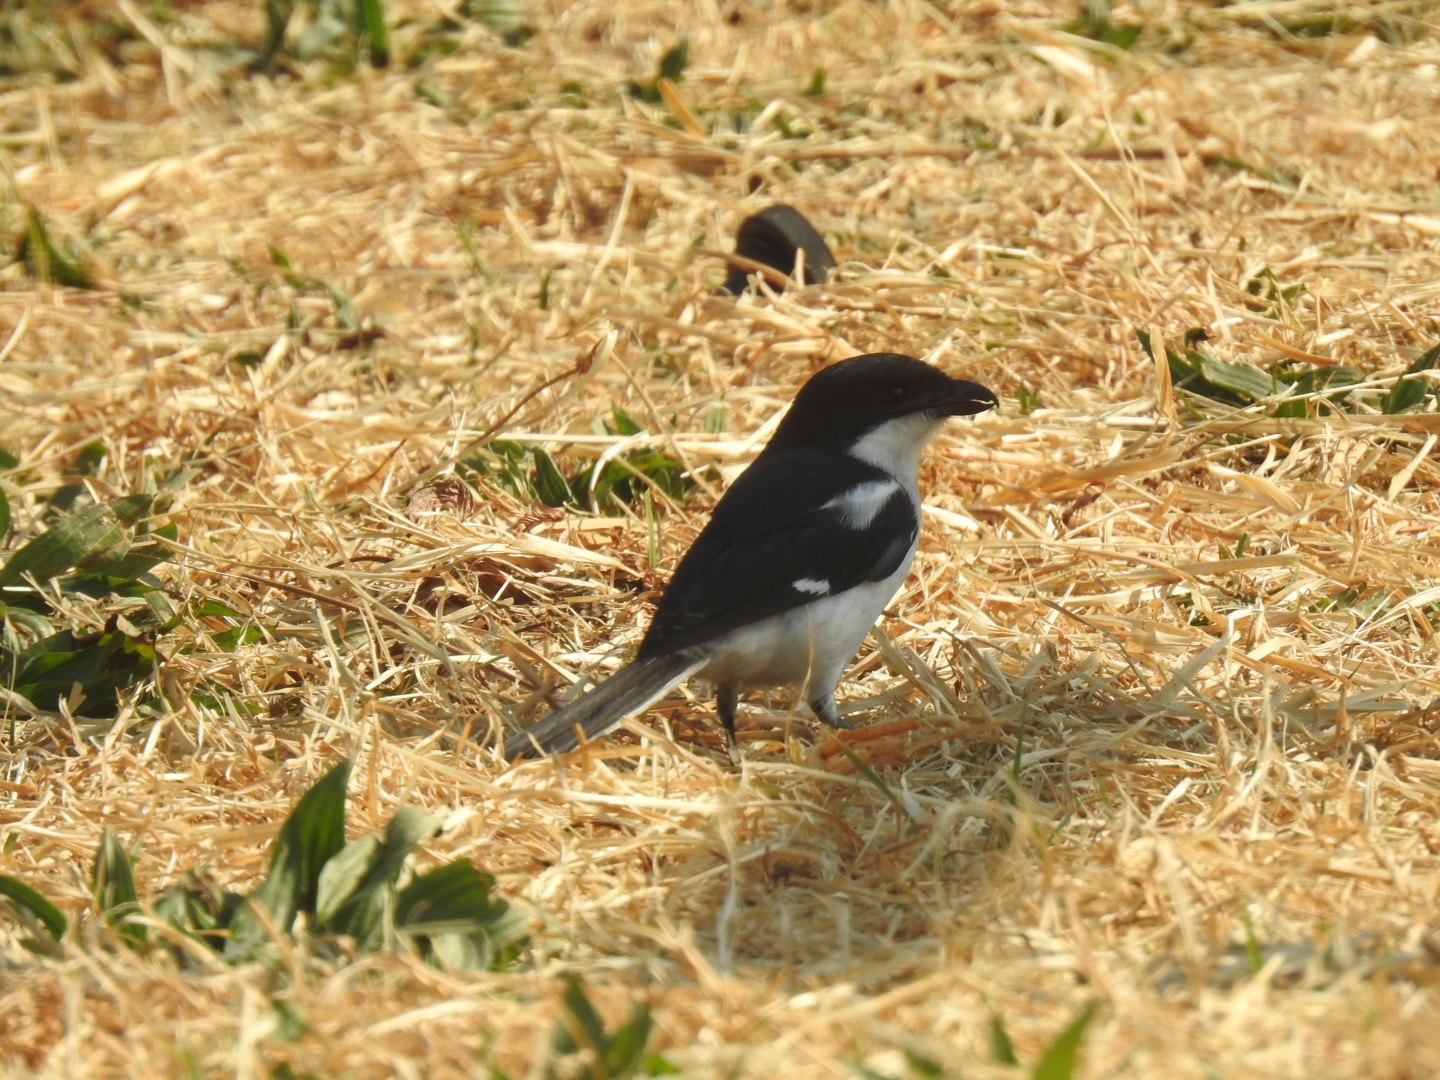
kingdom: Animalia
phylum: Chordata
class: Aves
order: Passeriformes
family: Laniidae
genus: Lanius
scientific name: Lanius collaris
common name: Southern fiscal
